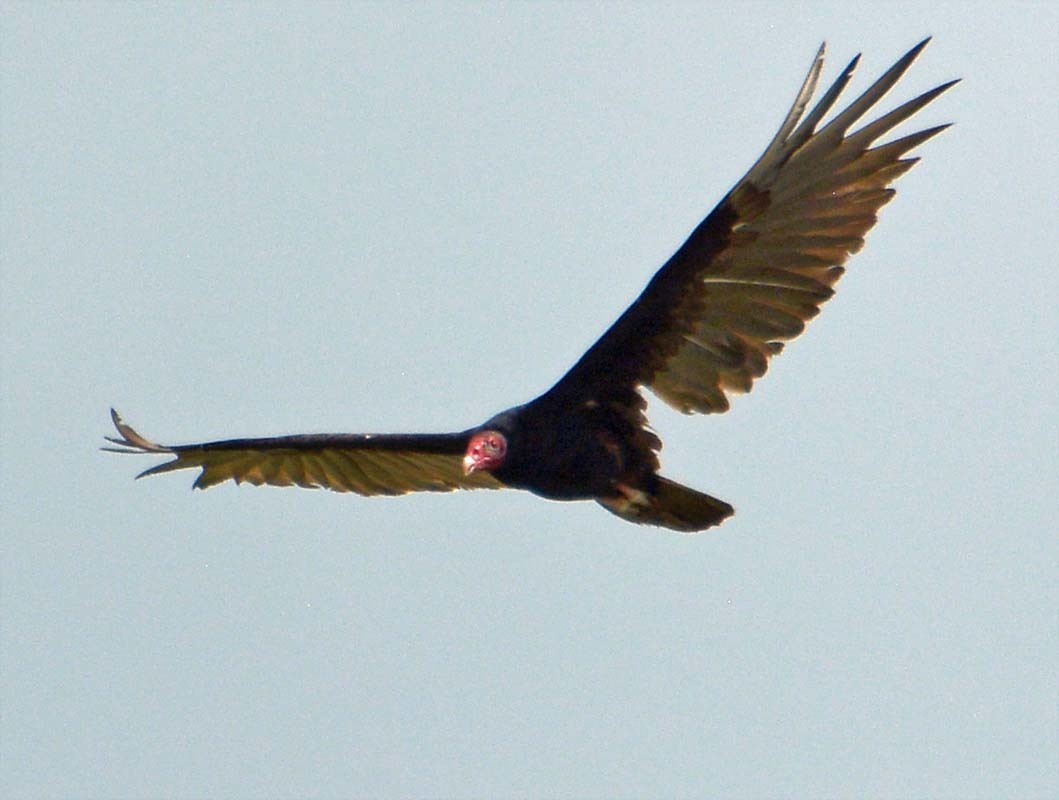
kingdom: Animalia
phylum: Chordata
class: Aves
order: Accipitriformes
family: Cathartidae
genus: Cathartes
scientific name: Cathartes aura
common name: Turkey vulture
